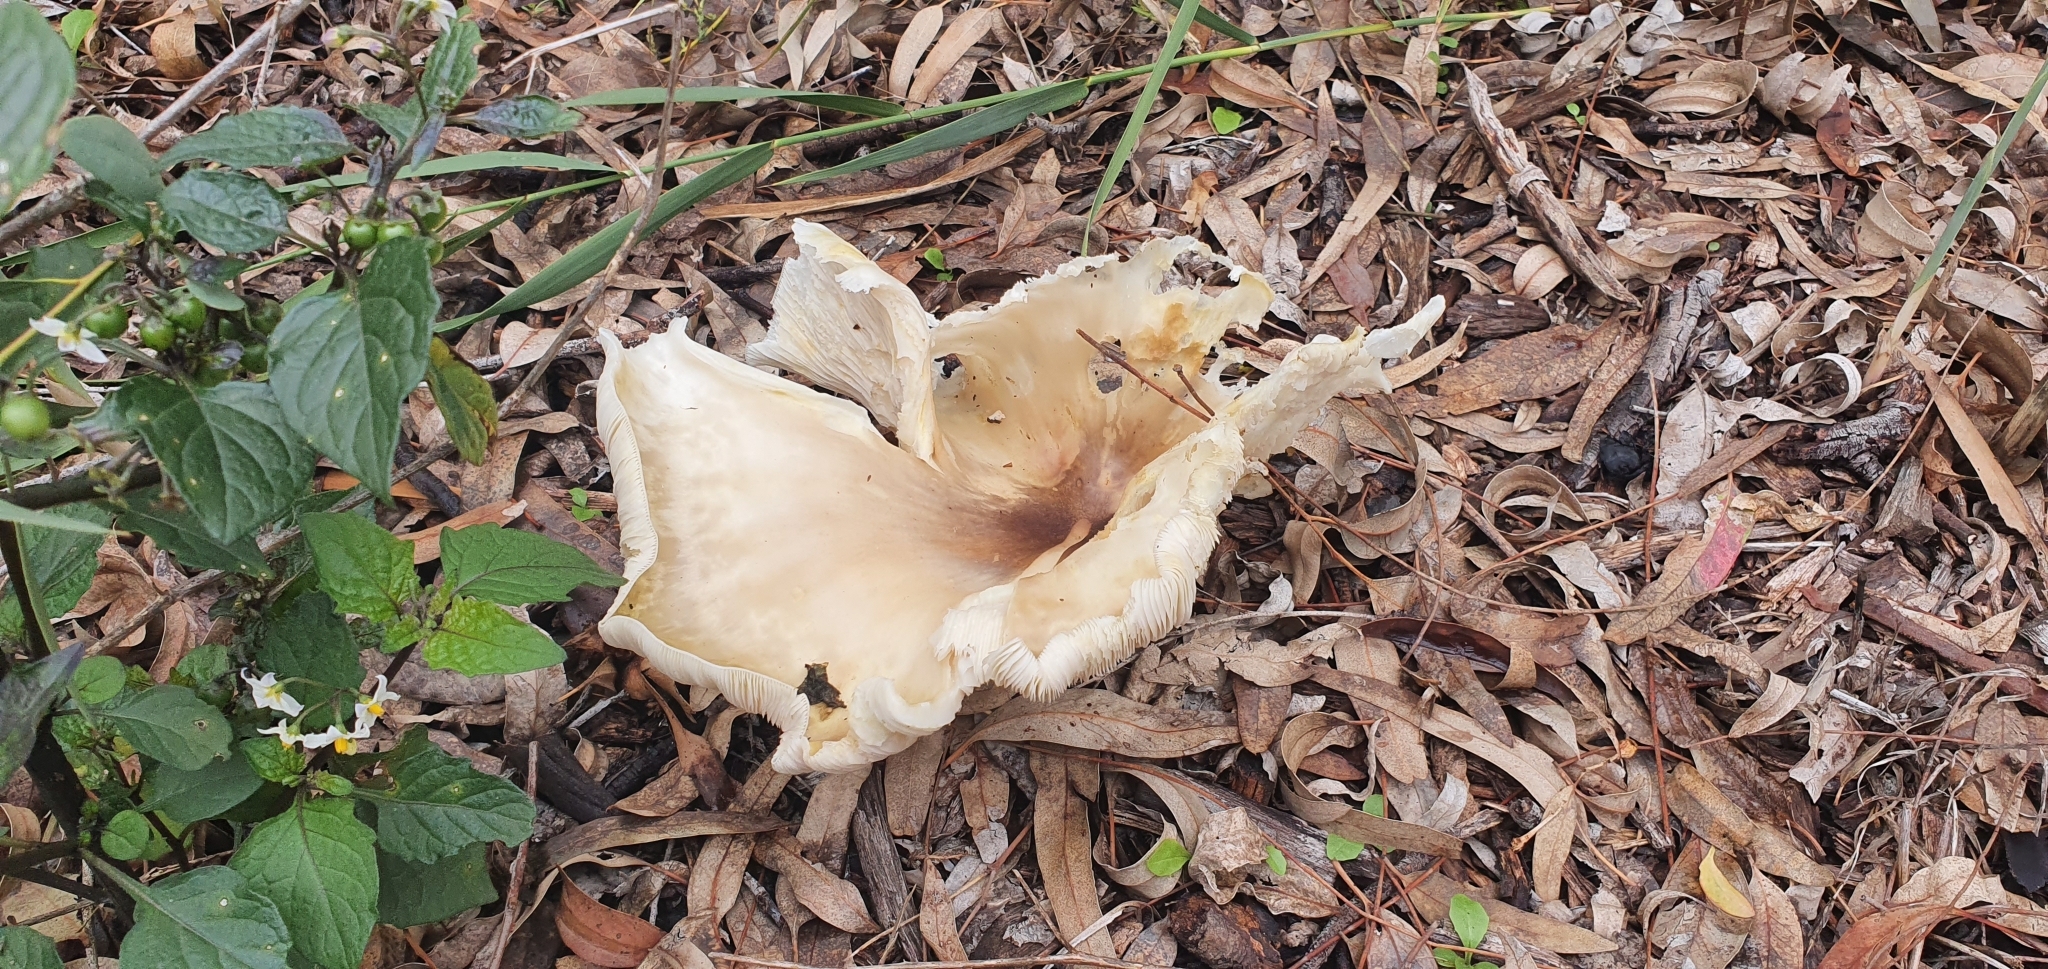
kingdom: Fungi
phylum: Basidiomycota
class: Agaricomycetes
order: Agaricales
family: Omphalotaceae
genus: Omphalotus
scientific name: Omphalotus nidiformis
